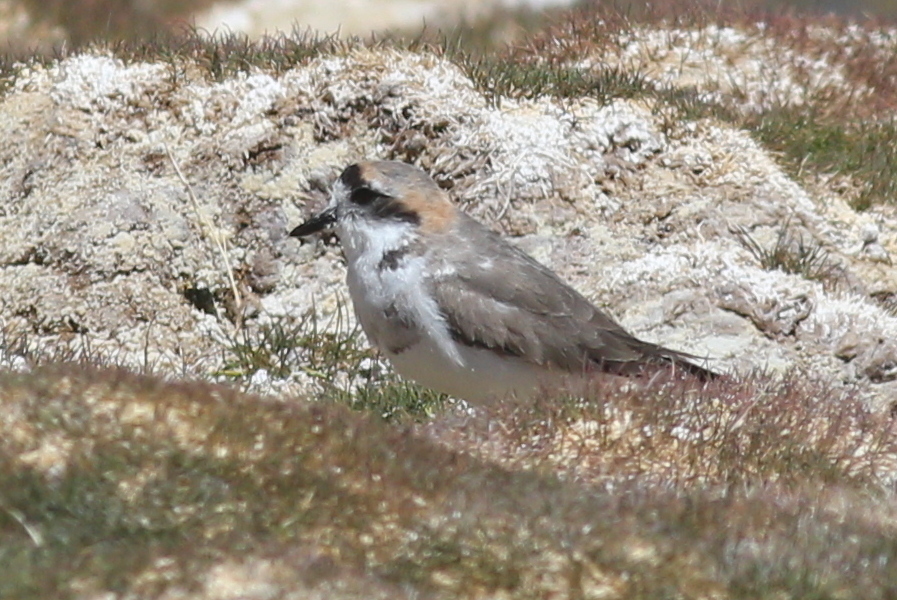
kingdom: Animalia
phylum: Chordata
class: Aves
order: Charadriiformes
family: Charadriidae
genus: Anarhynchus
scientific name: Anarhynchus
